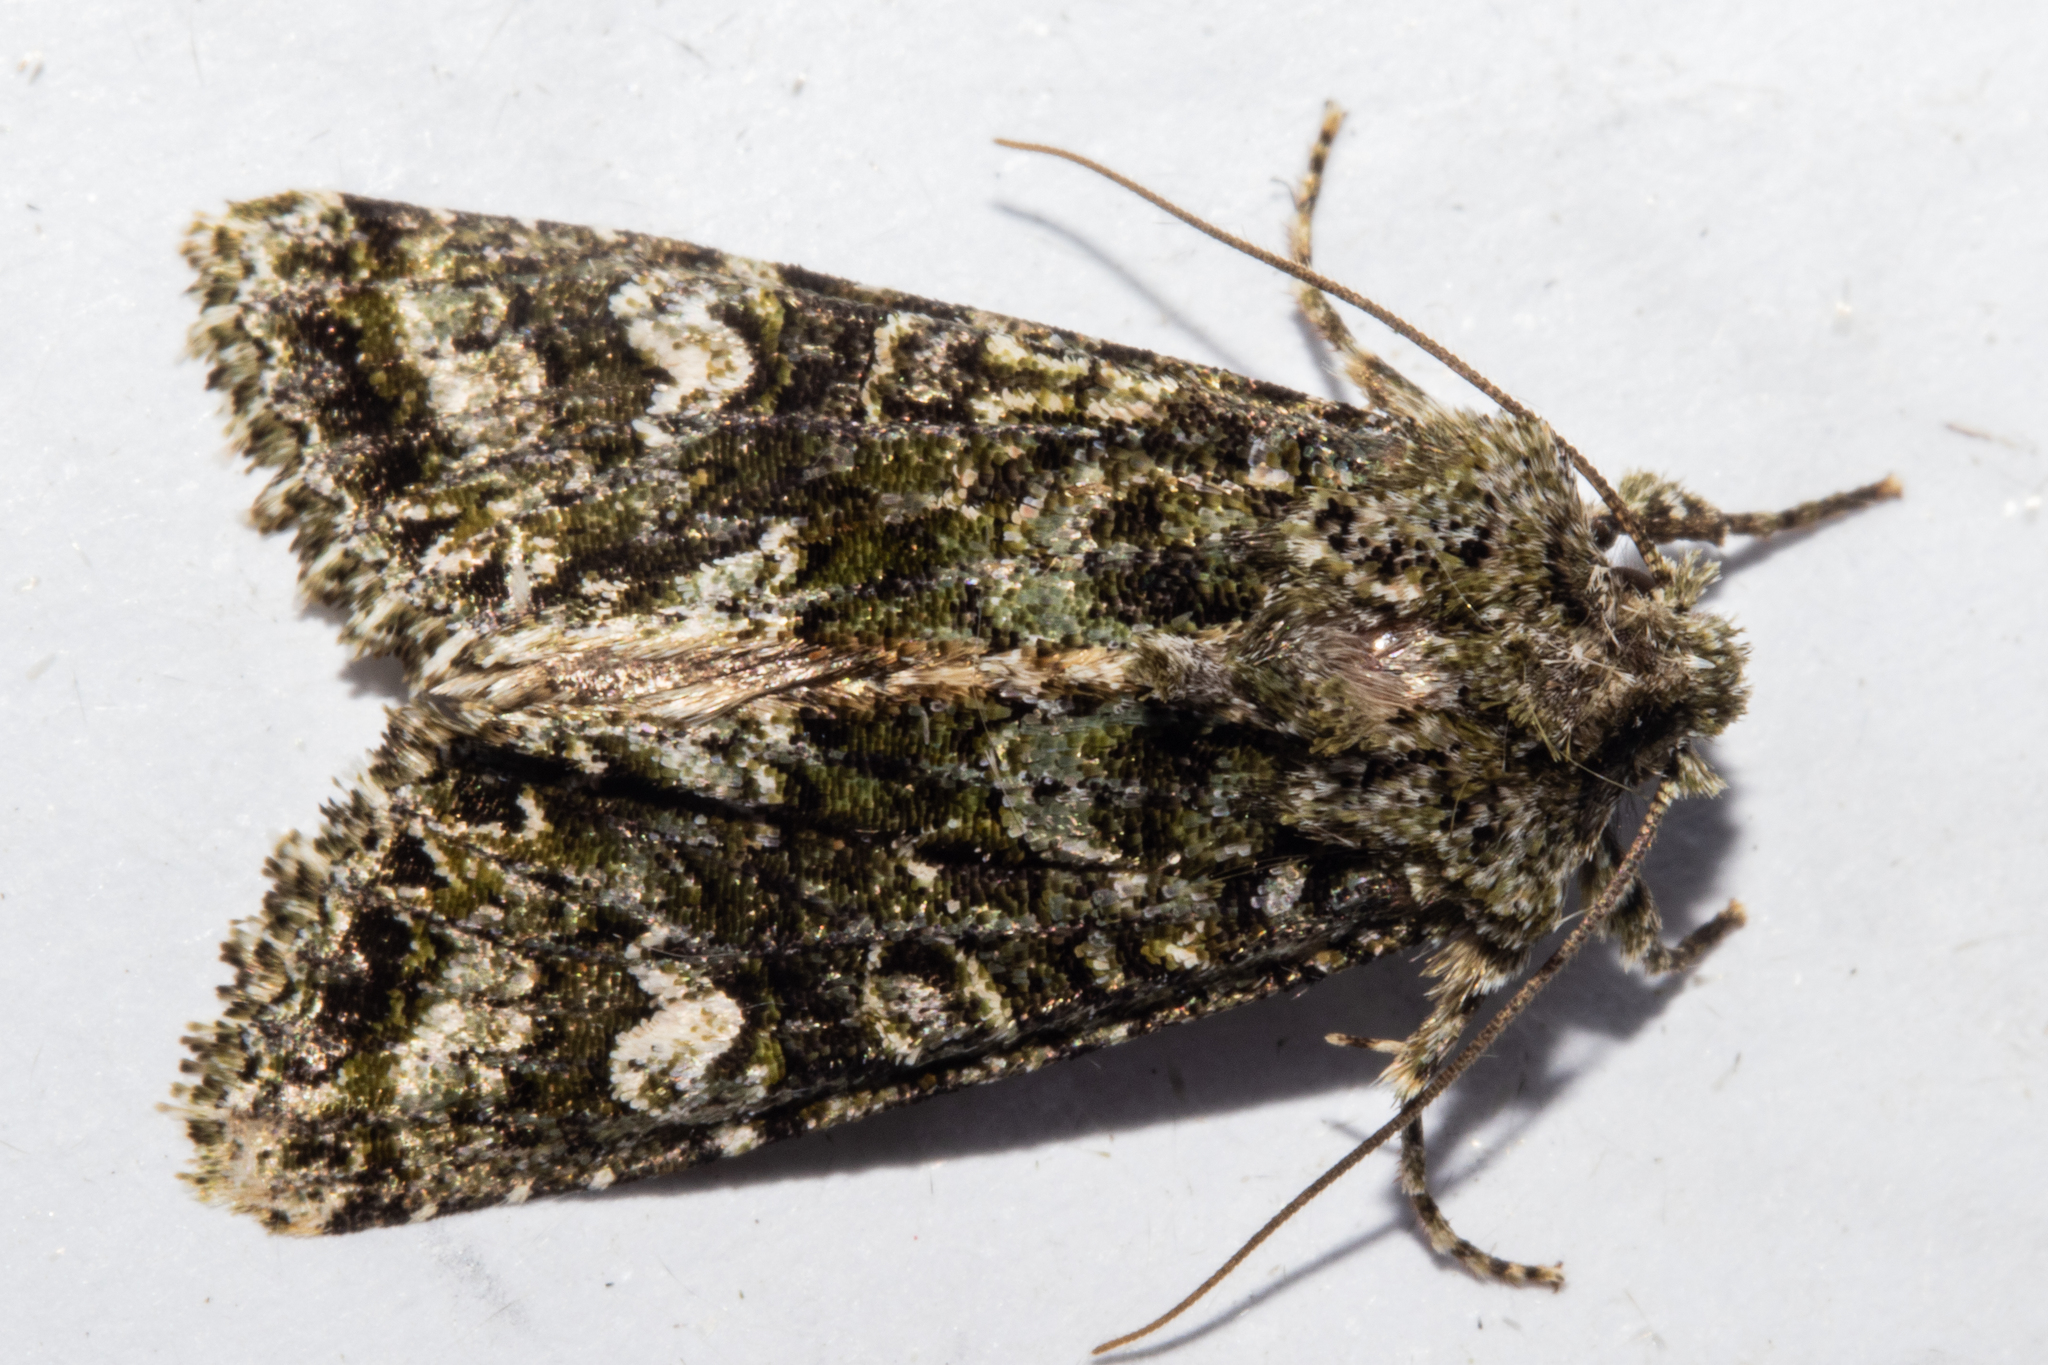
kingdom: Animalia
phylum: Arthropoda
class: Insecta
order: Lepidoptera
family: Noctuidae
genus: Ichneutica
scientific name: Ichneutica
